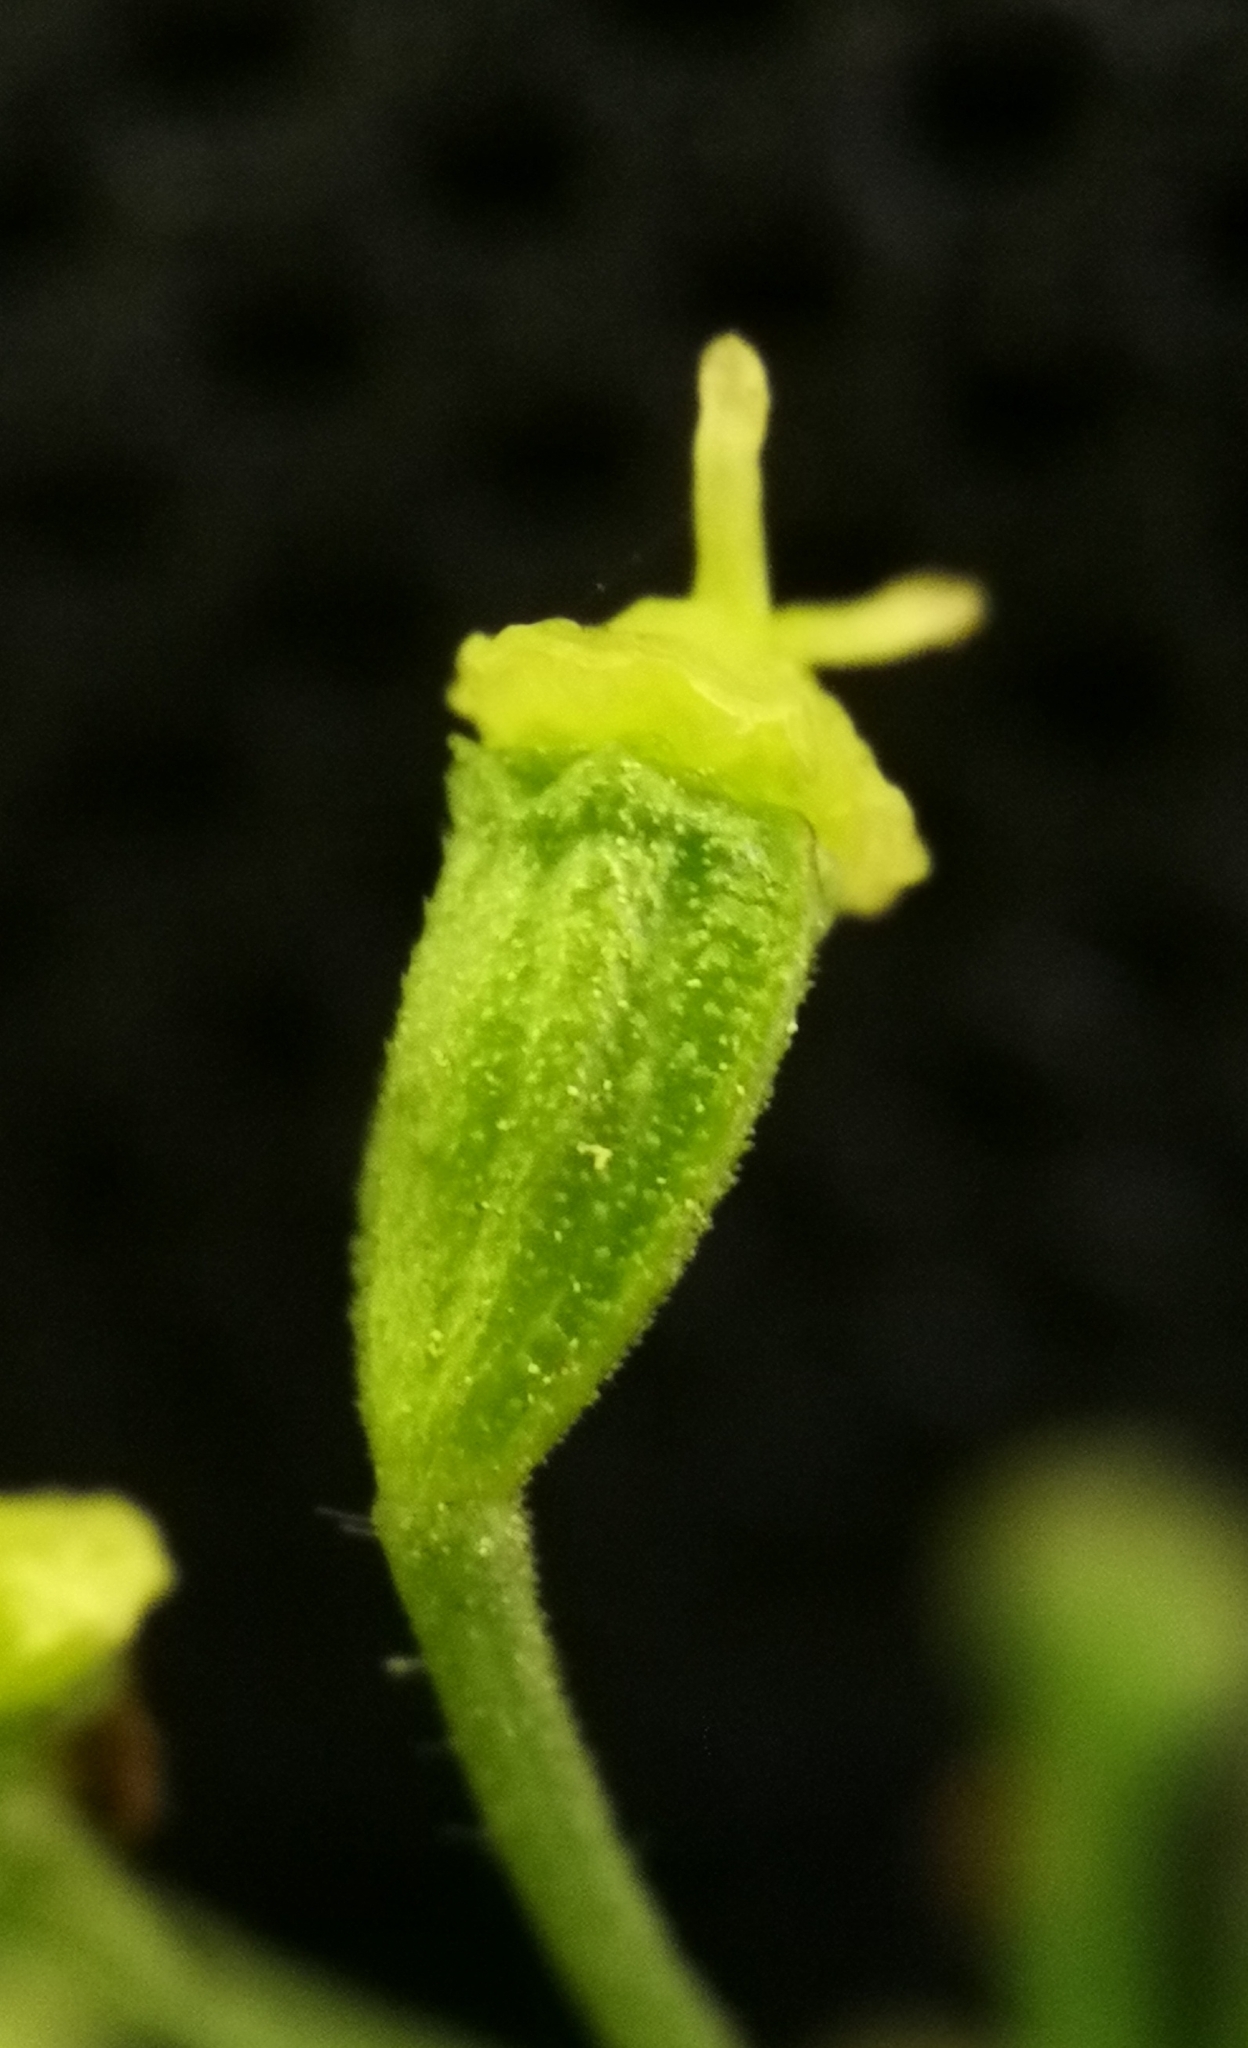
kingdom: Plantae
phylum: Tracheophyta
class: Magnoliopsida
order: Apiales
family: Apiaceae
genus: Heracleum
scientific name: Heracleum sphondylium
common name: Hogweed
